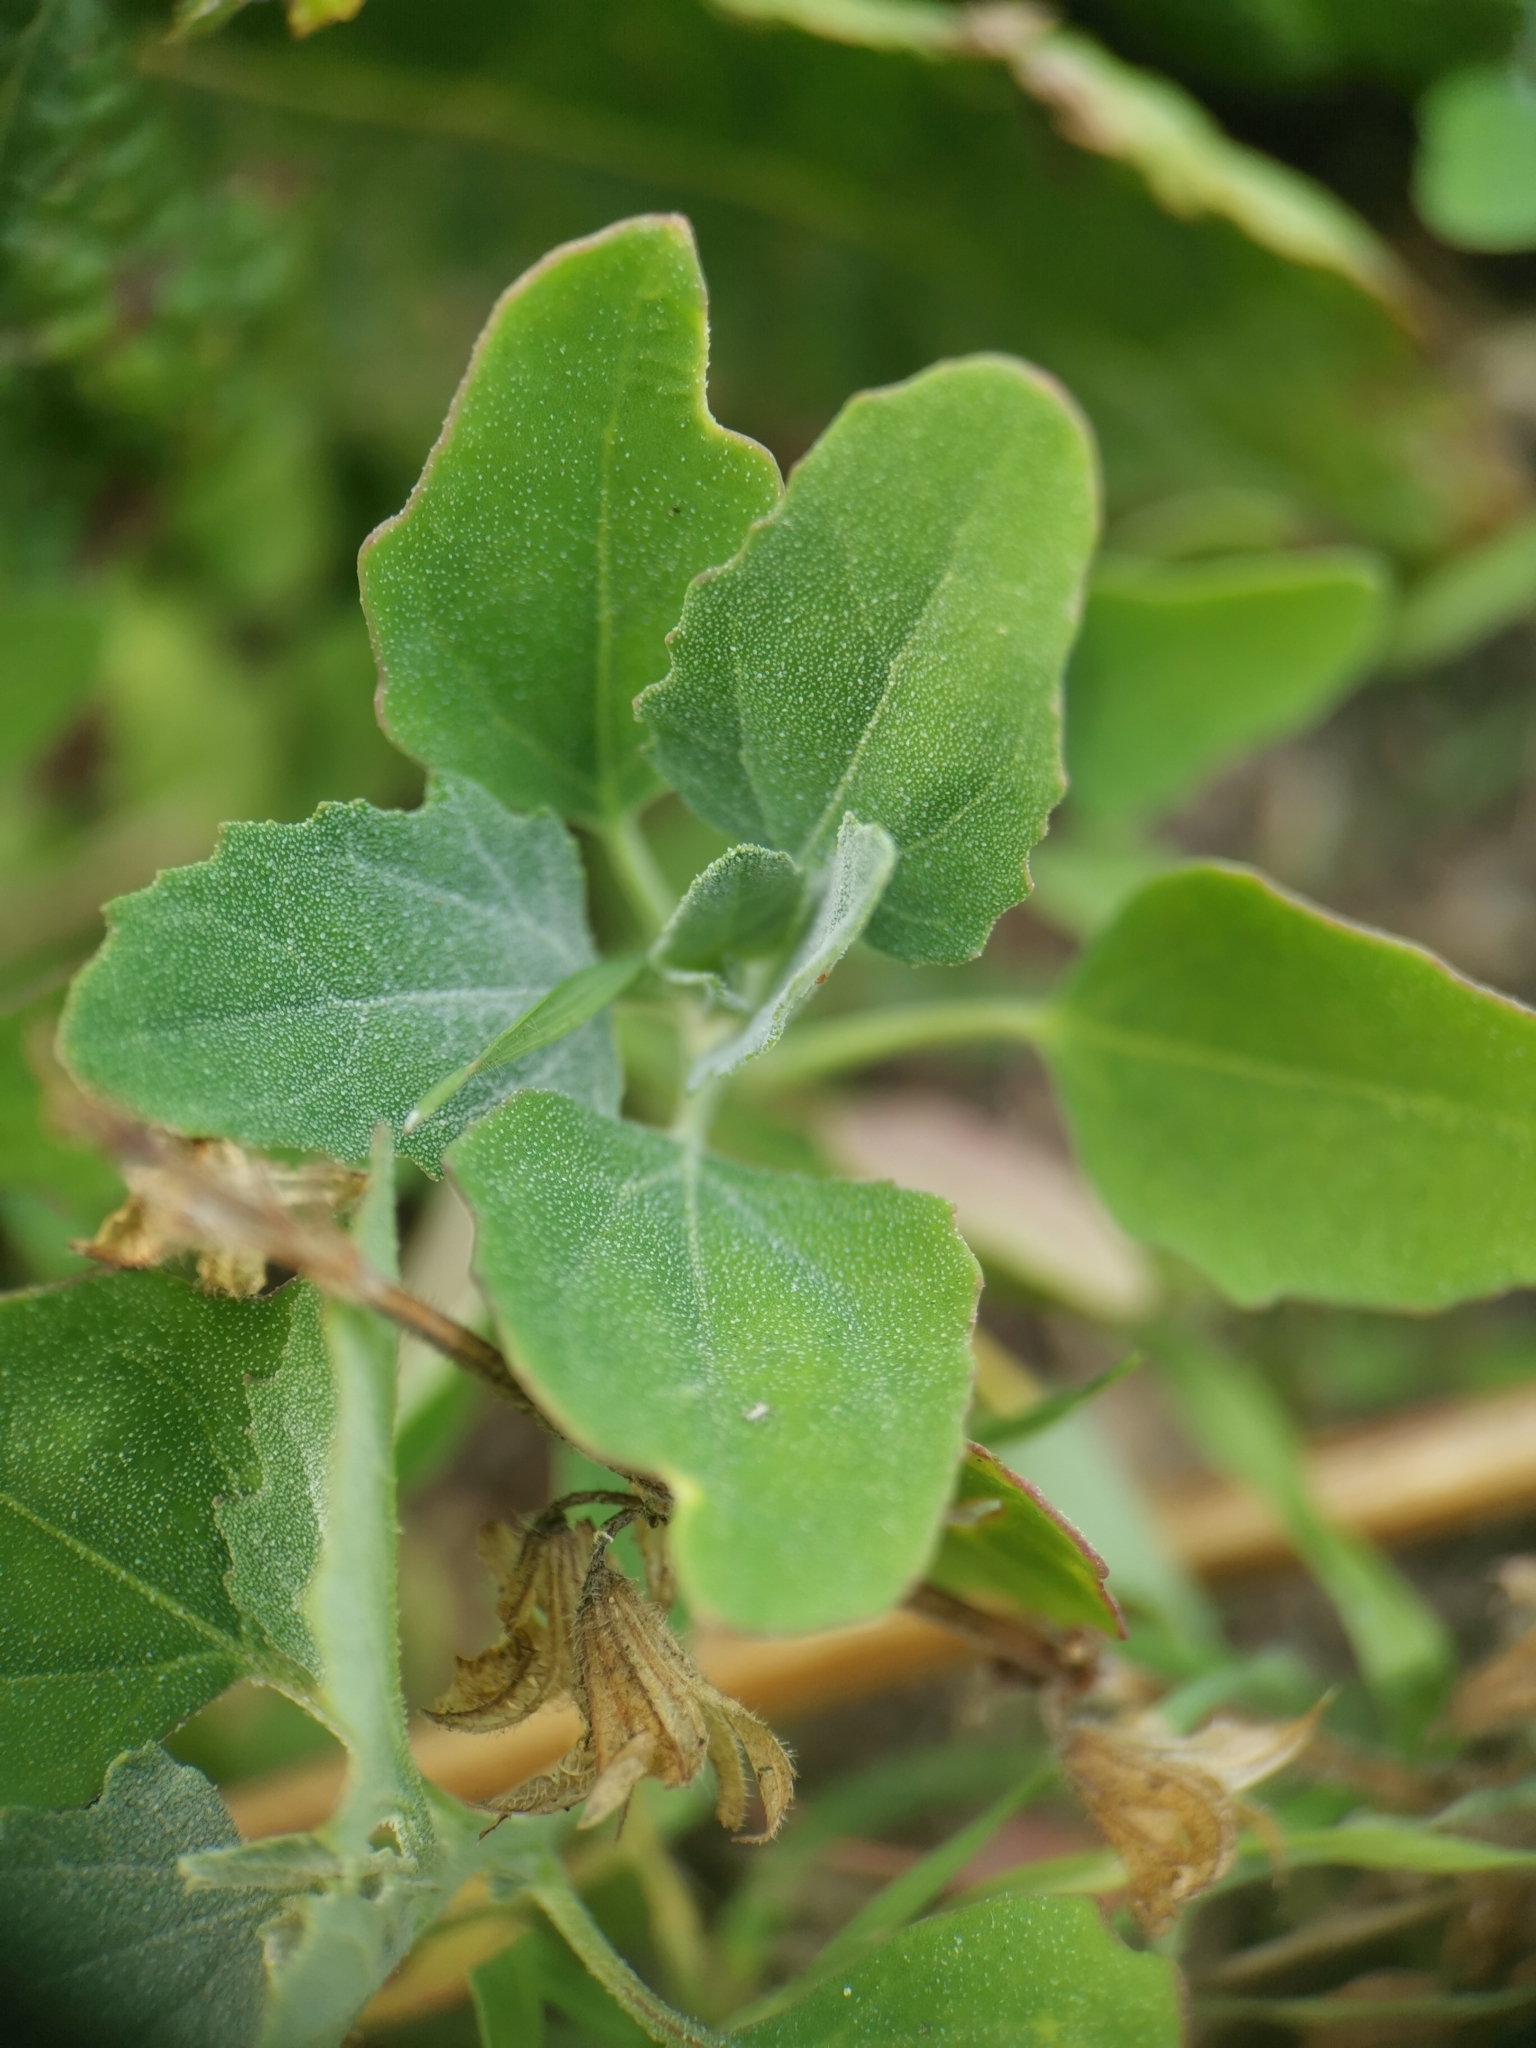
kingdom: Plantae
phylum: Tracheophyta
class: Magnoliopsida
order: Caryophyllales
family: Amaranthaceae
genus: Chenopodium
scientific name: Chenopodium album
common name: Fat-hen
